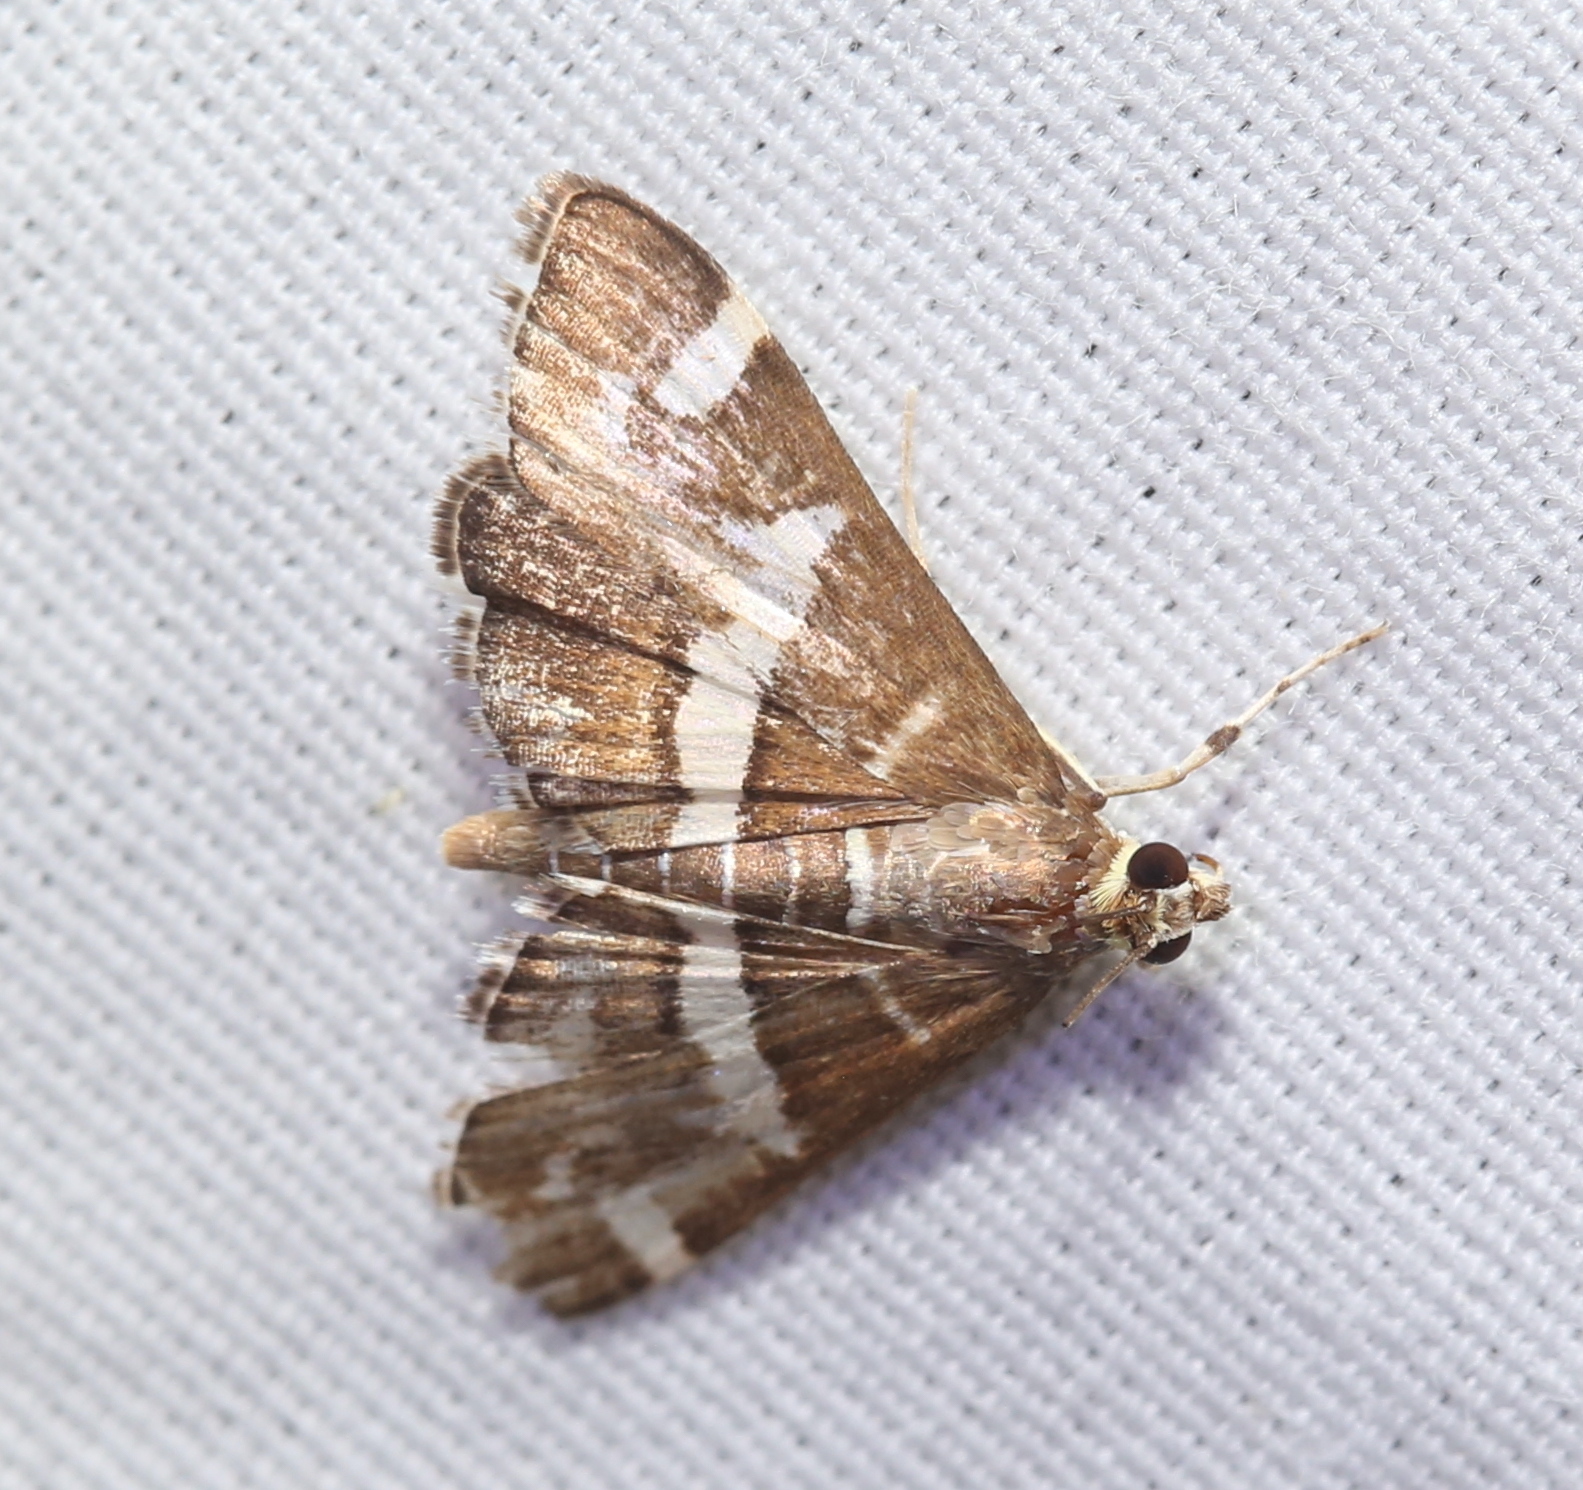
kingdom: Animalia
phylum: Arthropoda
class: Insecta
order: Lepidoptera
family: Crambidae
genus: Spoladea
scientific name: Spoladea recurvalis
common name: Beet webworm moth
